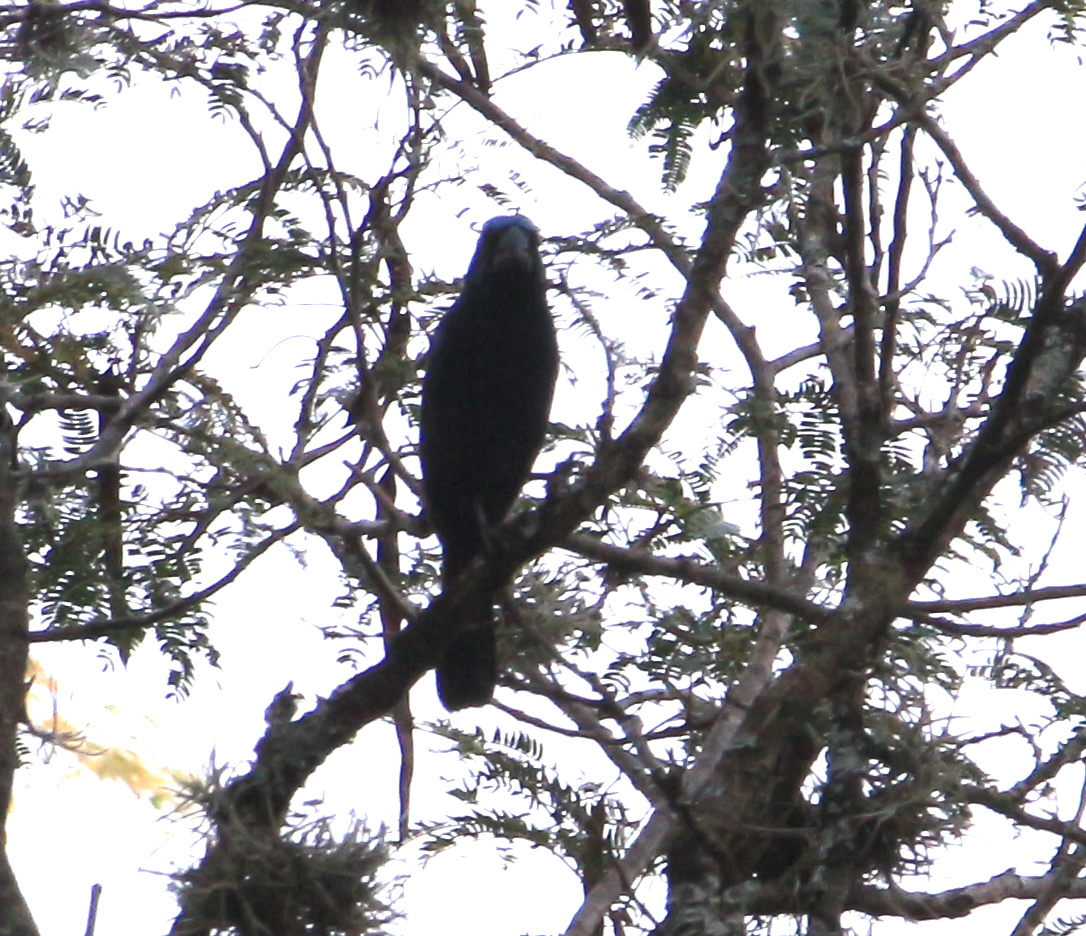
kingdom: Animalia
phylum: Chordata
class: Aves
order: Passeriformes
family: Cardinalidae
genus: Cyanoloxia
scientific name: Cyanoloxia brissonii
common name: Ultramarine grosbeak
